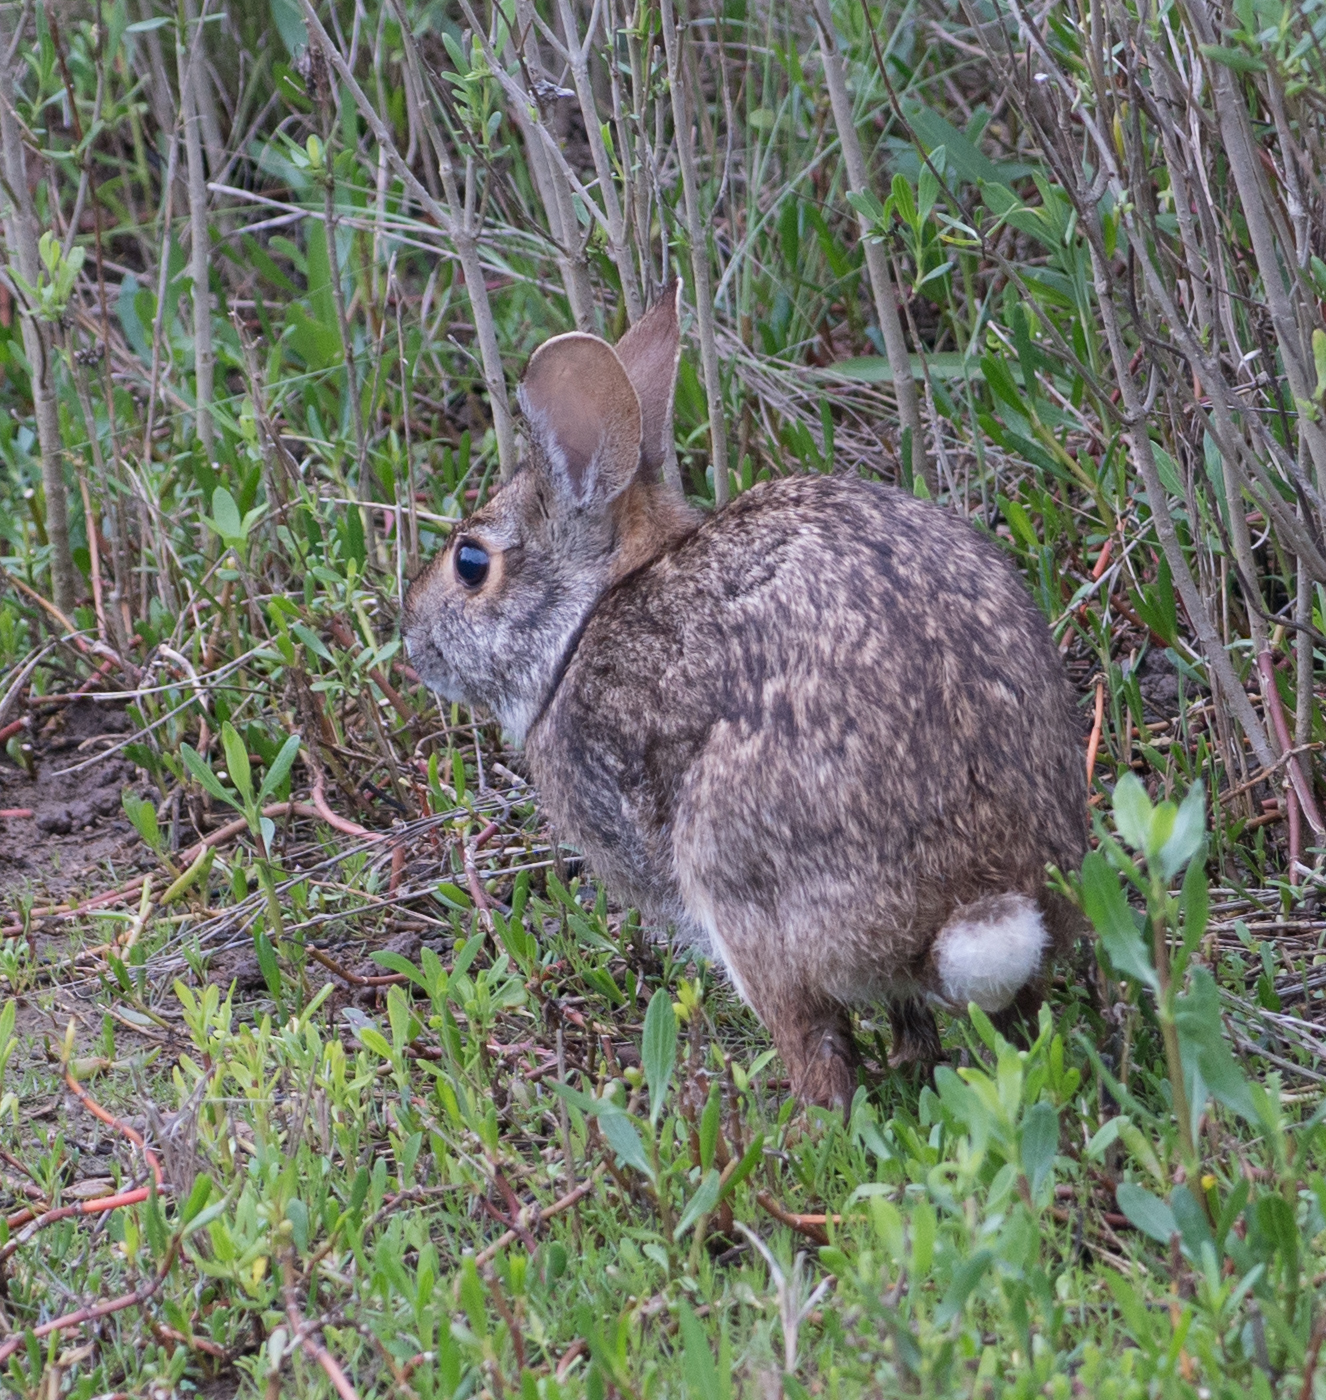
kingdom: Animalia
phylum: Chordata
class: Mammalia
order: Lagomorpha
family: Leporidae
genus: Sylvilagus
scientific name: Sylvilagus aquaticus
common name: Swamp rabbit
